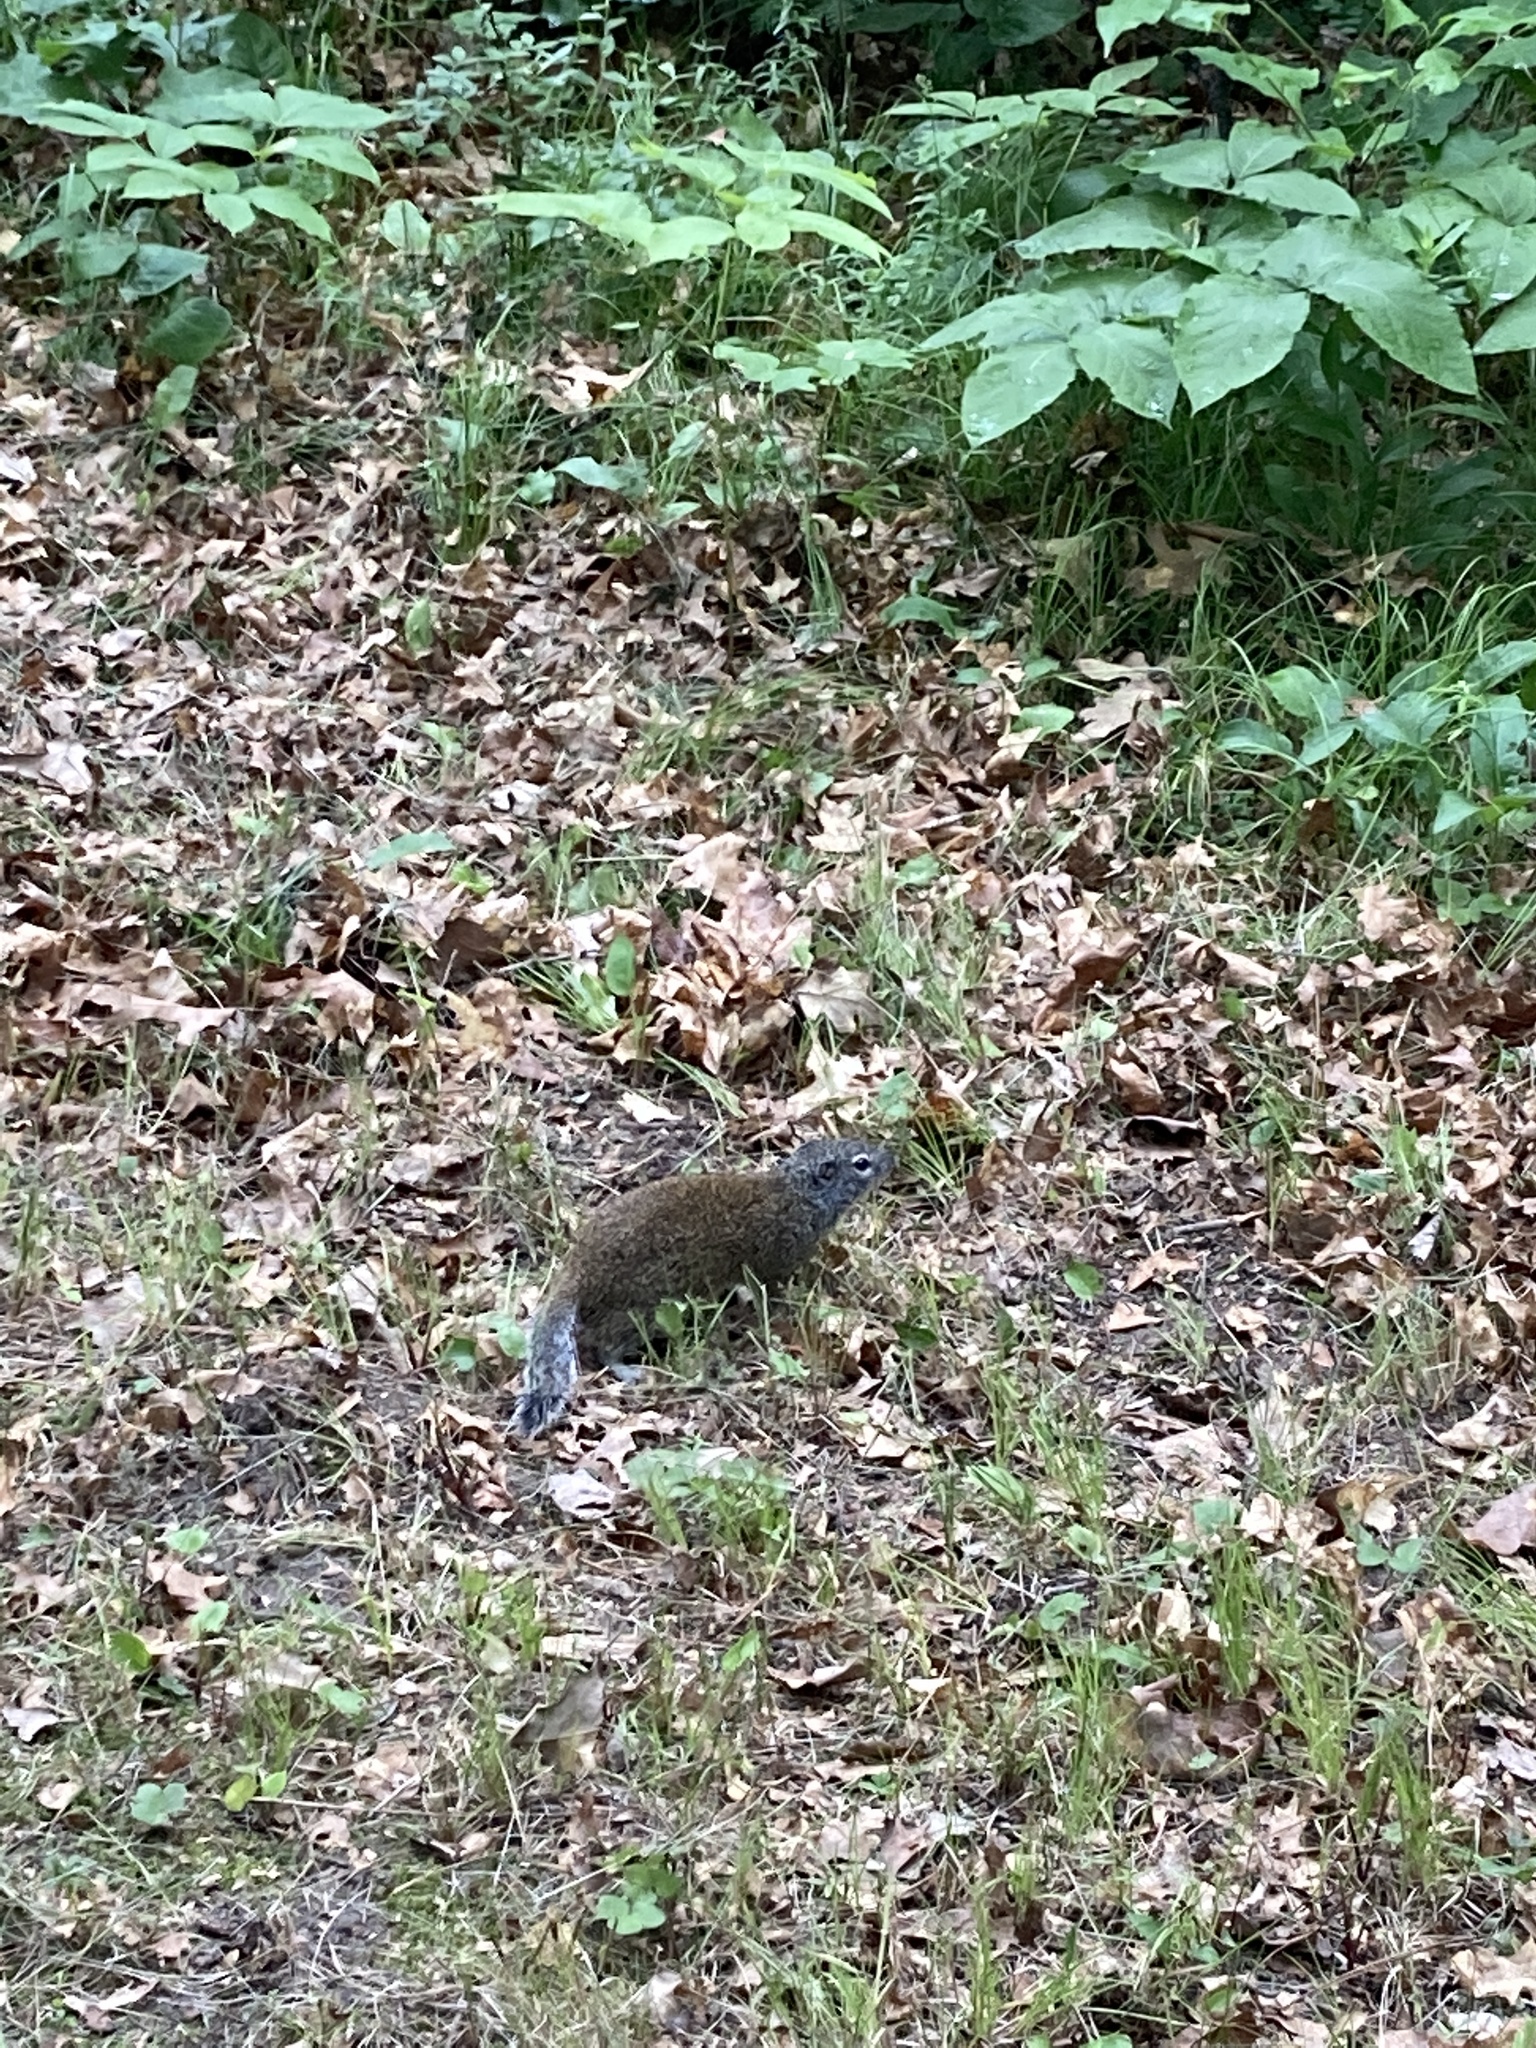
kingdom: Animalia
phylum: Chordata
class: Mammalia
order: Rodentia
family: Sciuridae
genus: Poliocitellus
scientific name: Poliocitellus franklinii
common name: Franklin's ground squirrel
